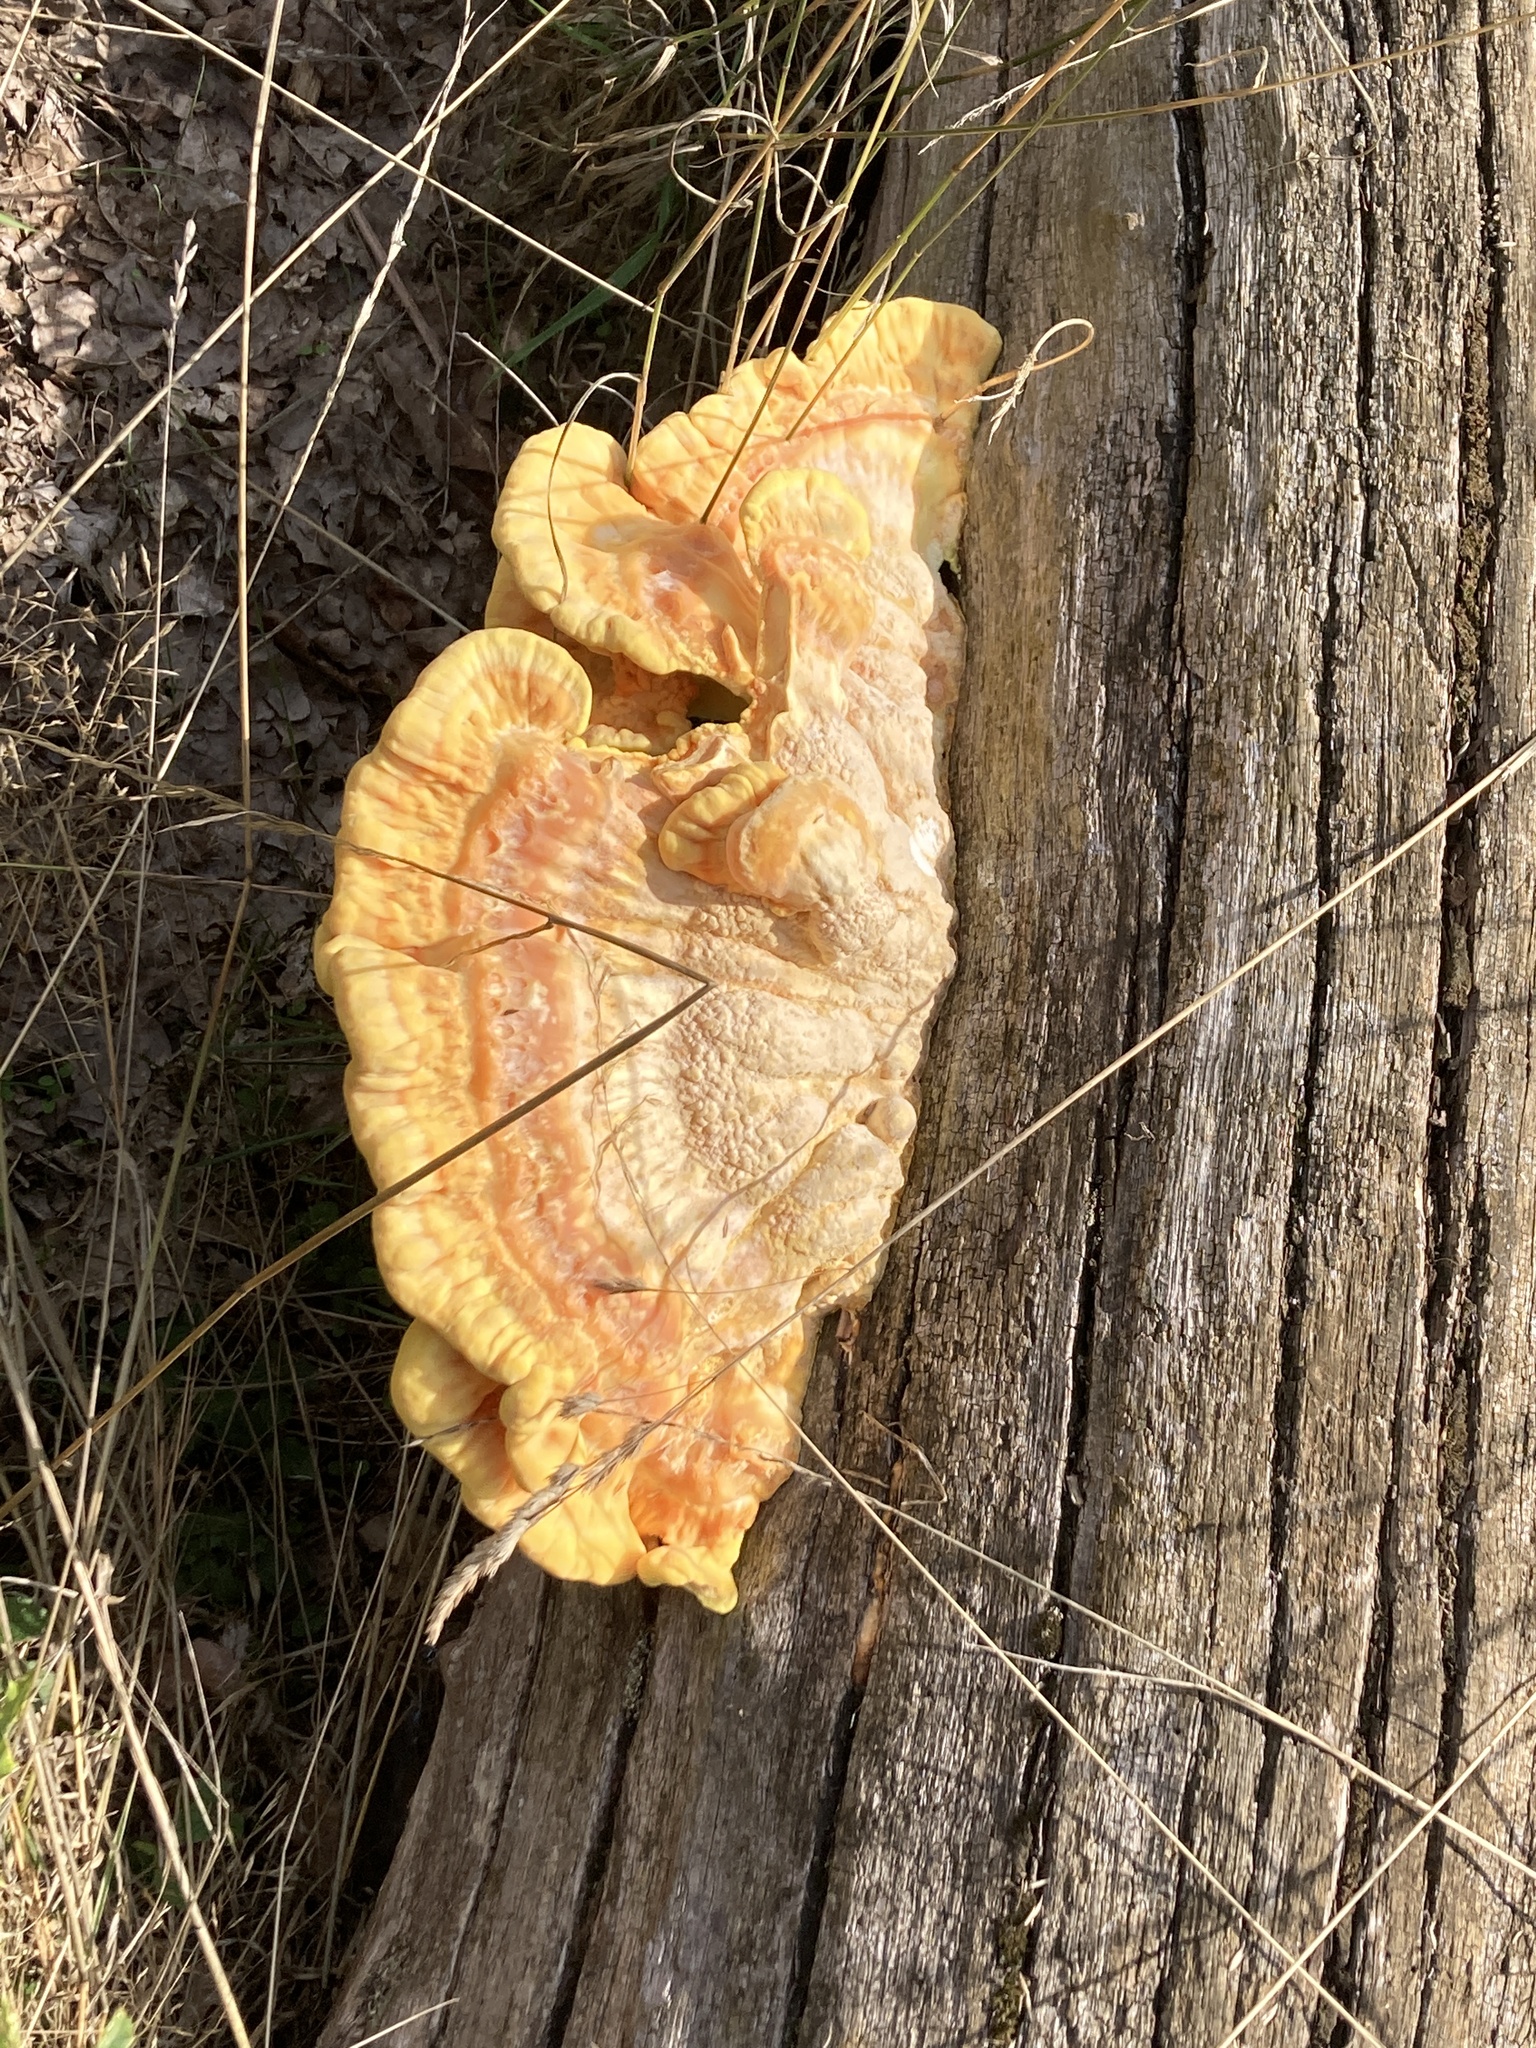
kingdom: Fungi
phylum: Basidiomycota
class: Agaricomycetes
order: Polyporales
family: Laetiporaceae
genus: Laetiporus
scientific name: Laetiporus sulphureus
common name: Chicken of the woods
